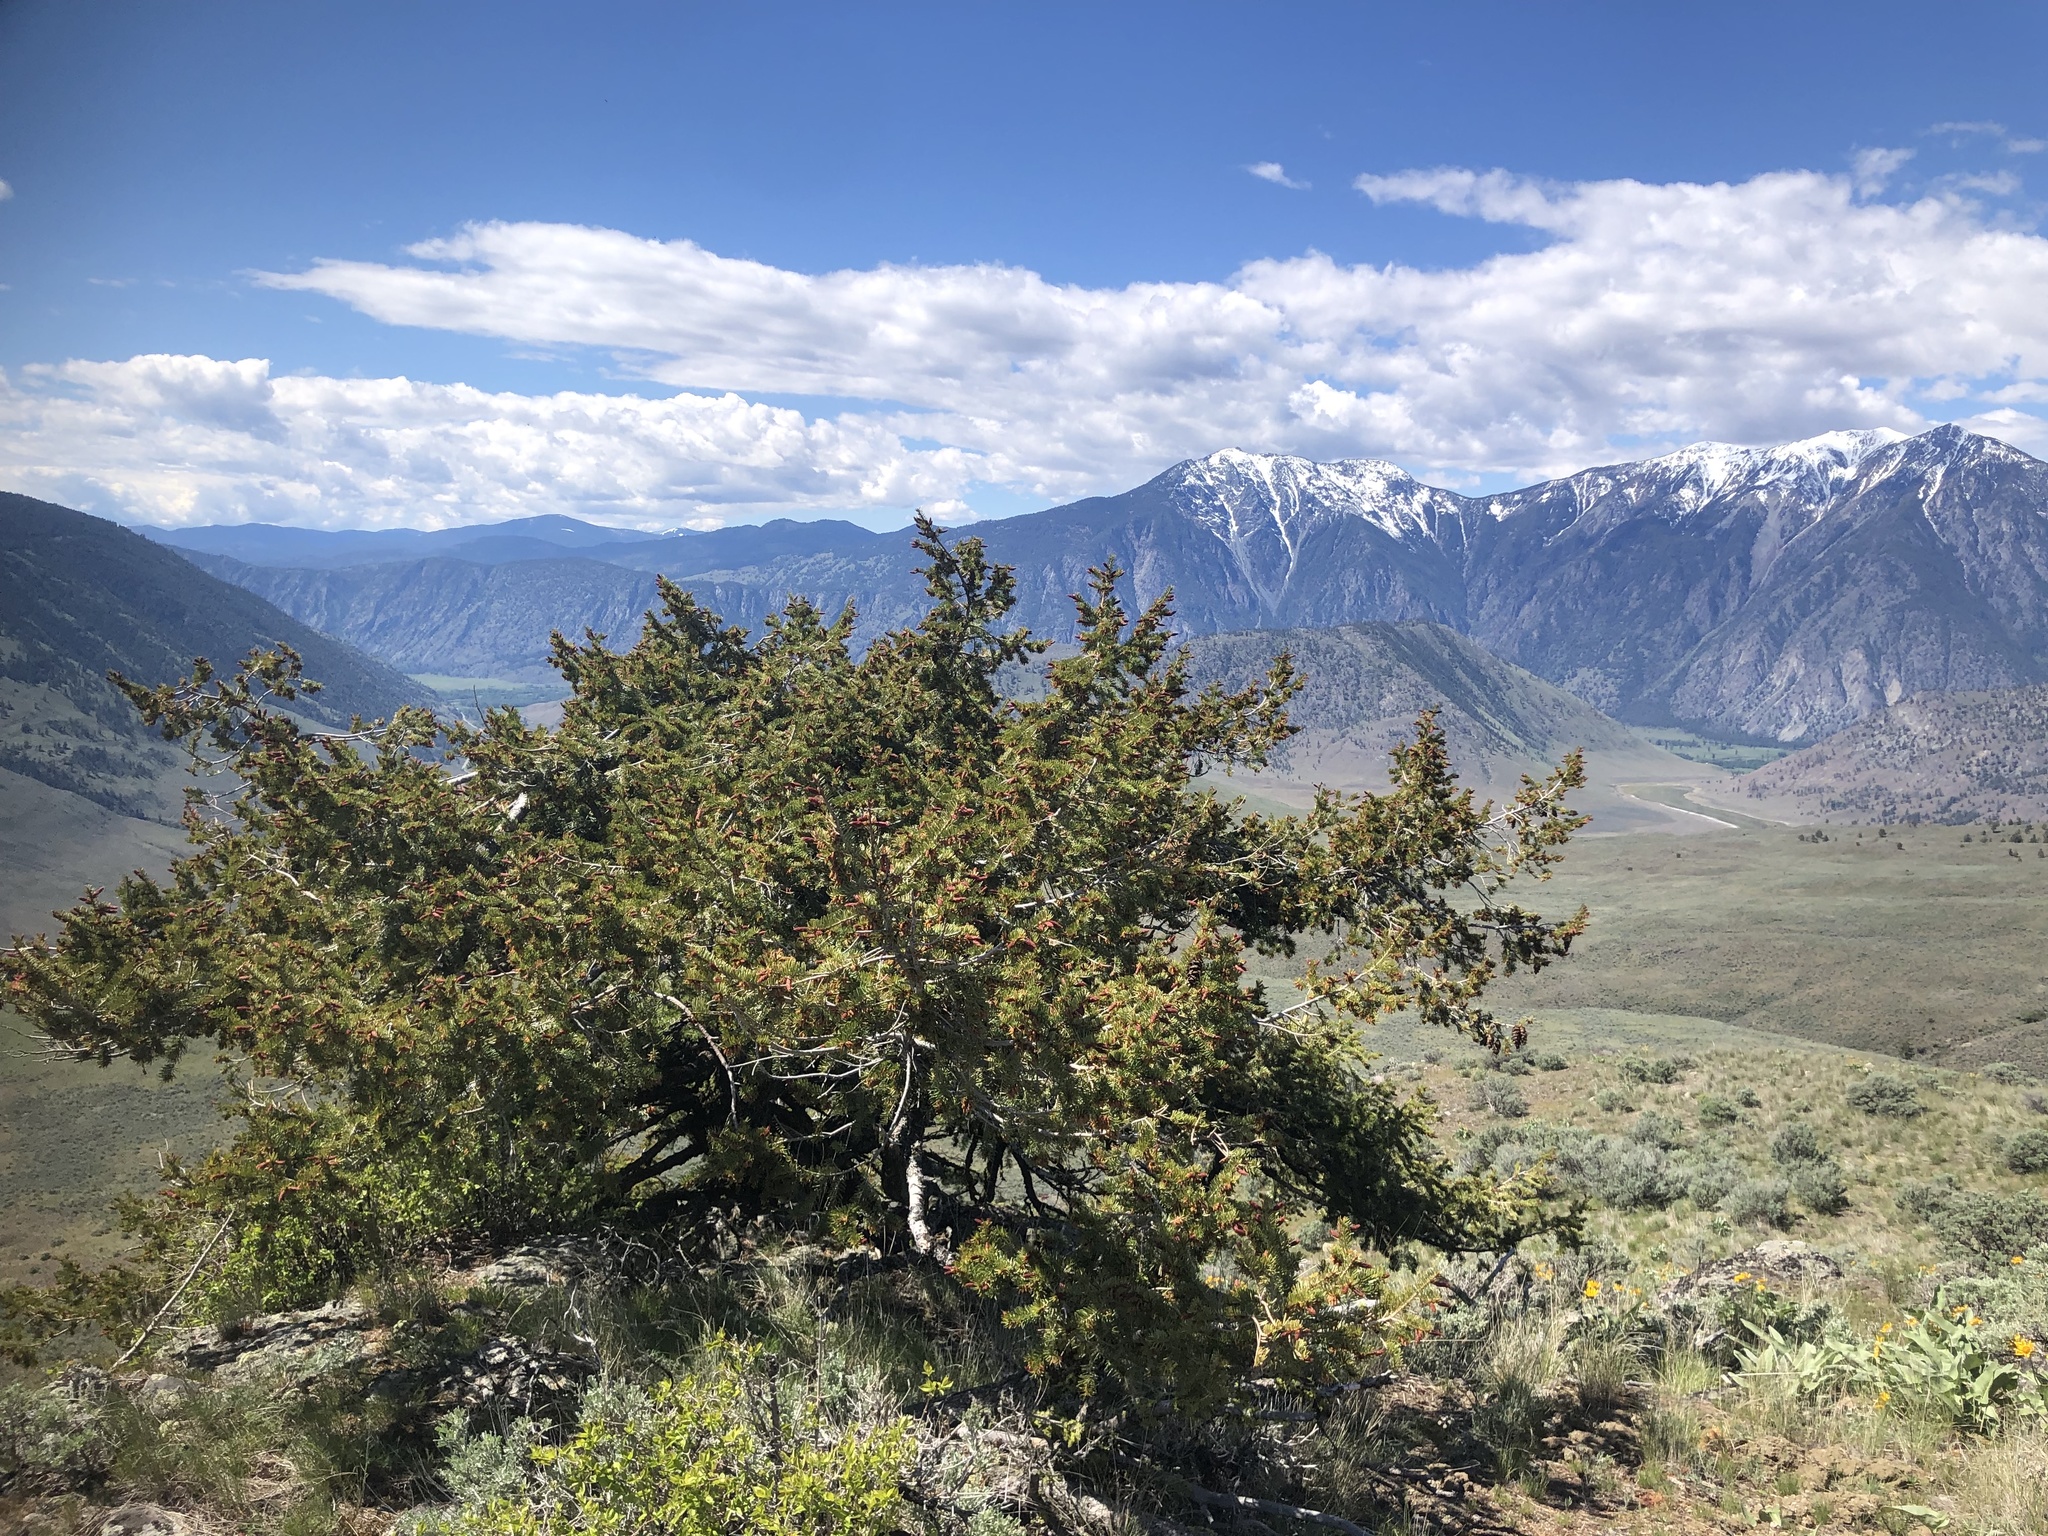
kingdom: Plantae
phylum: Tracheophyta
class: Pinopsida
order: Pinales
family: Pinaceae
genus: Pseudotsuga
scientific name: Pseudotsuga menziesii
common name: Douglas fir
